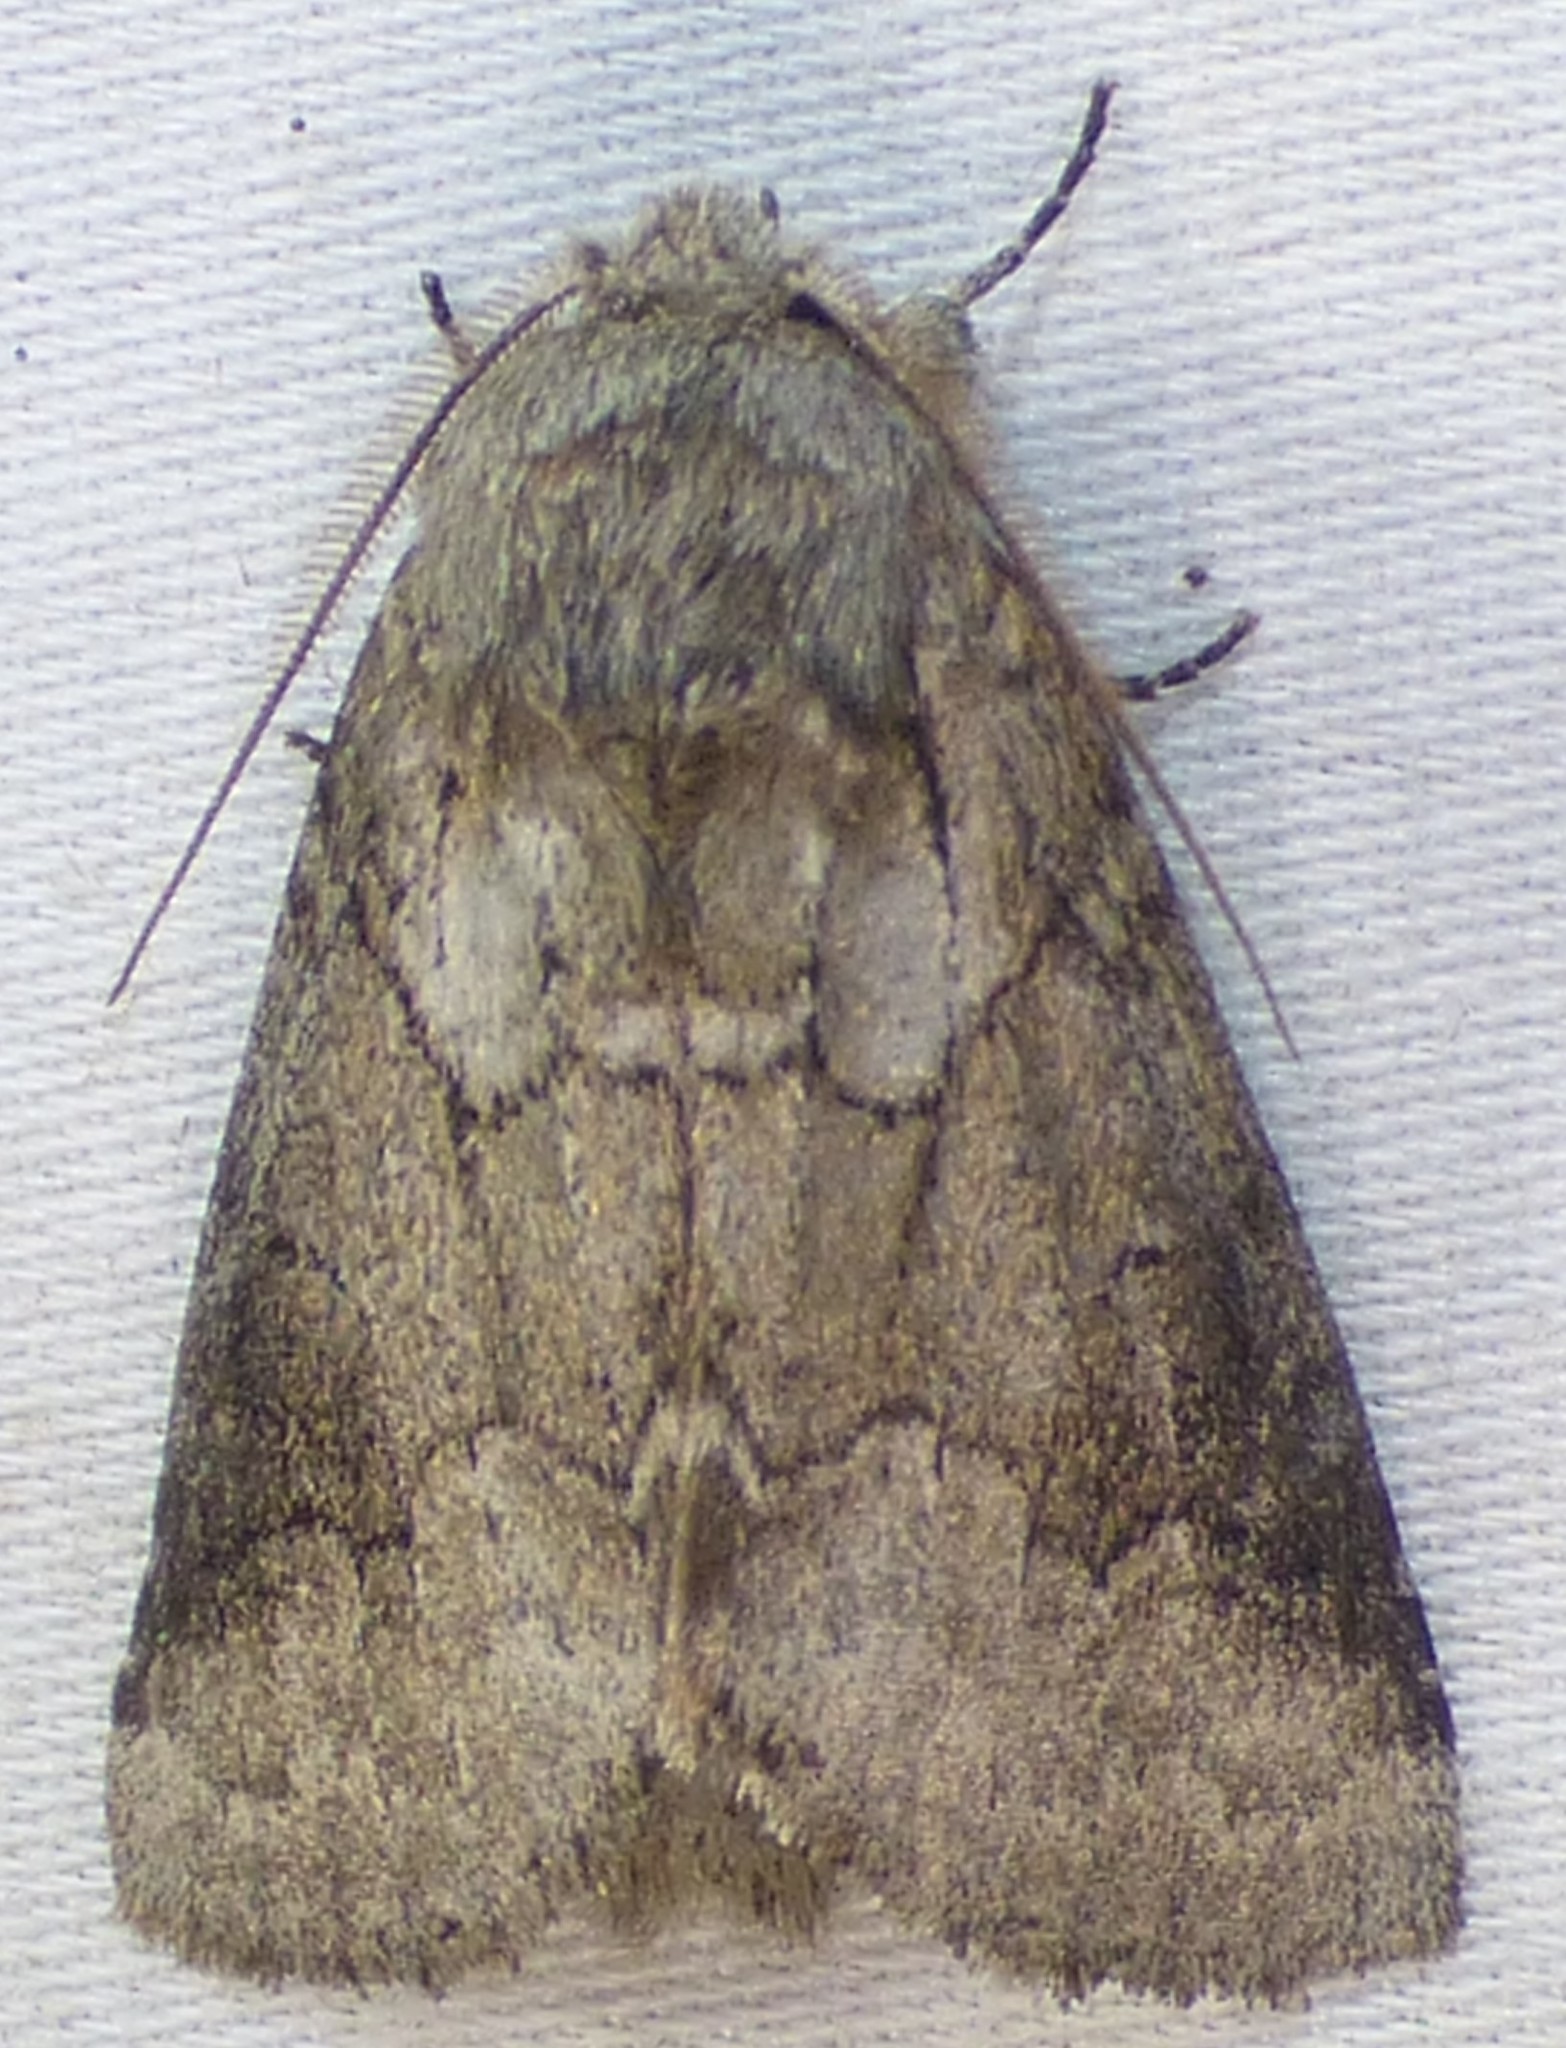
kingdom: Animalia
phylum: Arthropoda
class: Insecta
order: Lepidoptera
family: Notodontidae
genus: Lochmaeus
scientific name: Lochmaeus bilineata
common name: Double-lined prominent
